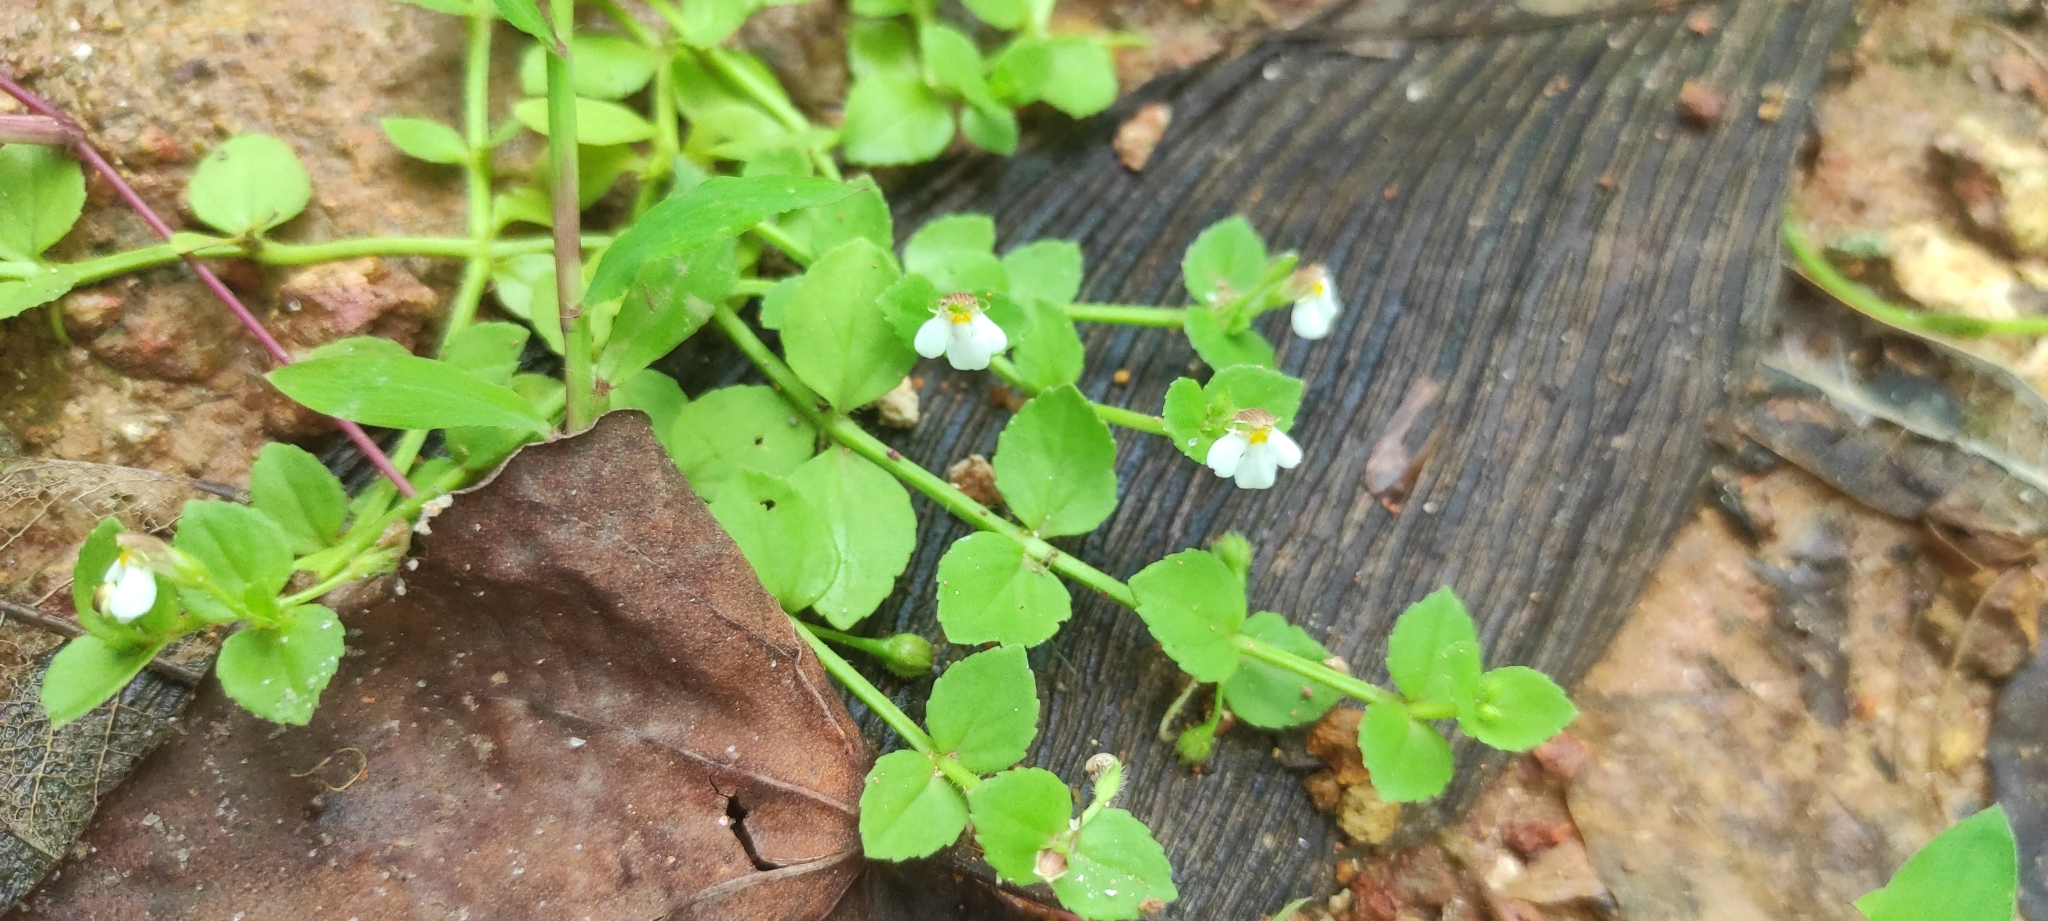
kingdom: Plantae
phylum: Tracheophyta
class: Magnoliopsida
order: Lamiales
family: Linderniaceae
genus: Yamazakia
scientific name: Yamazakia pusilla
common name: Tiny slitwort
